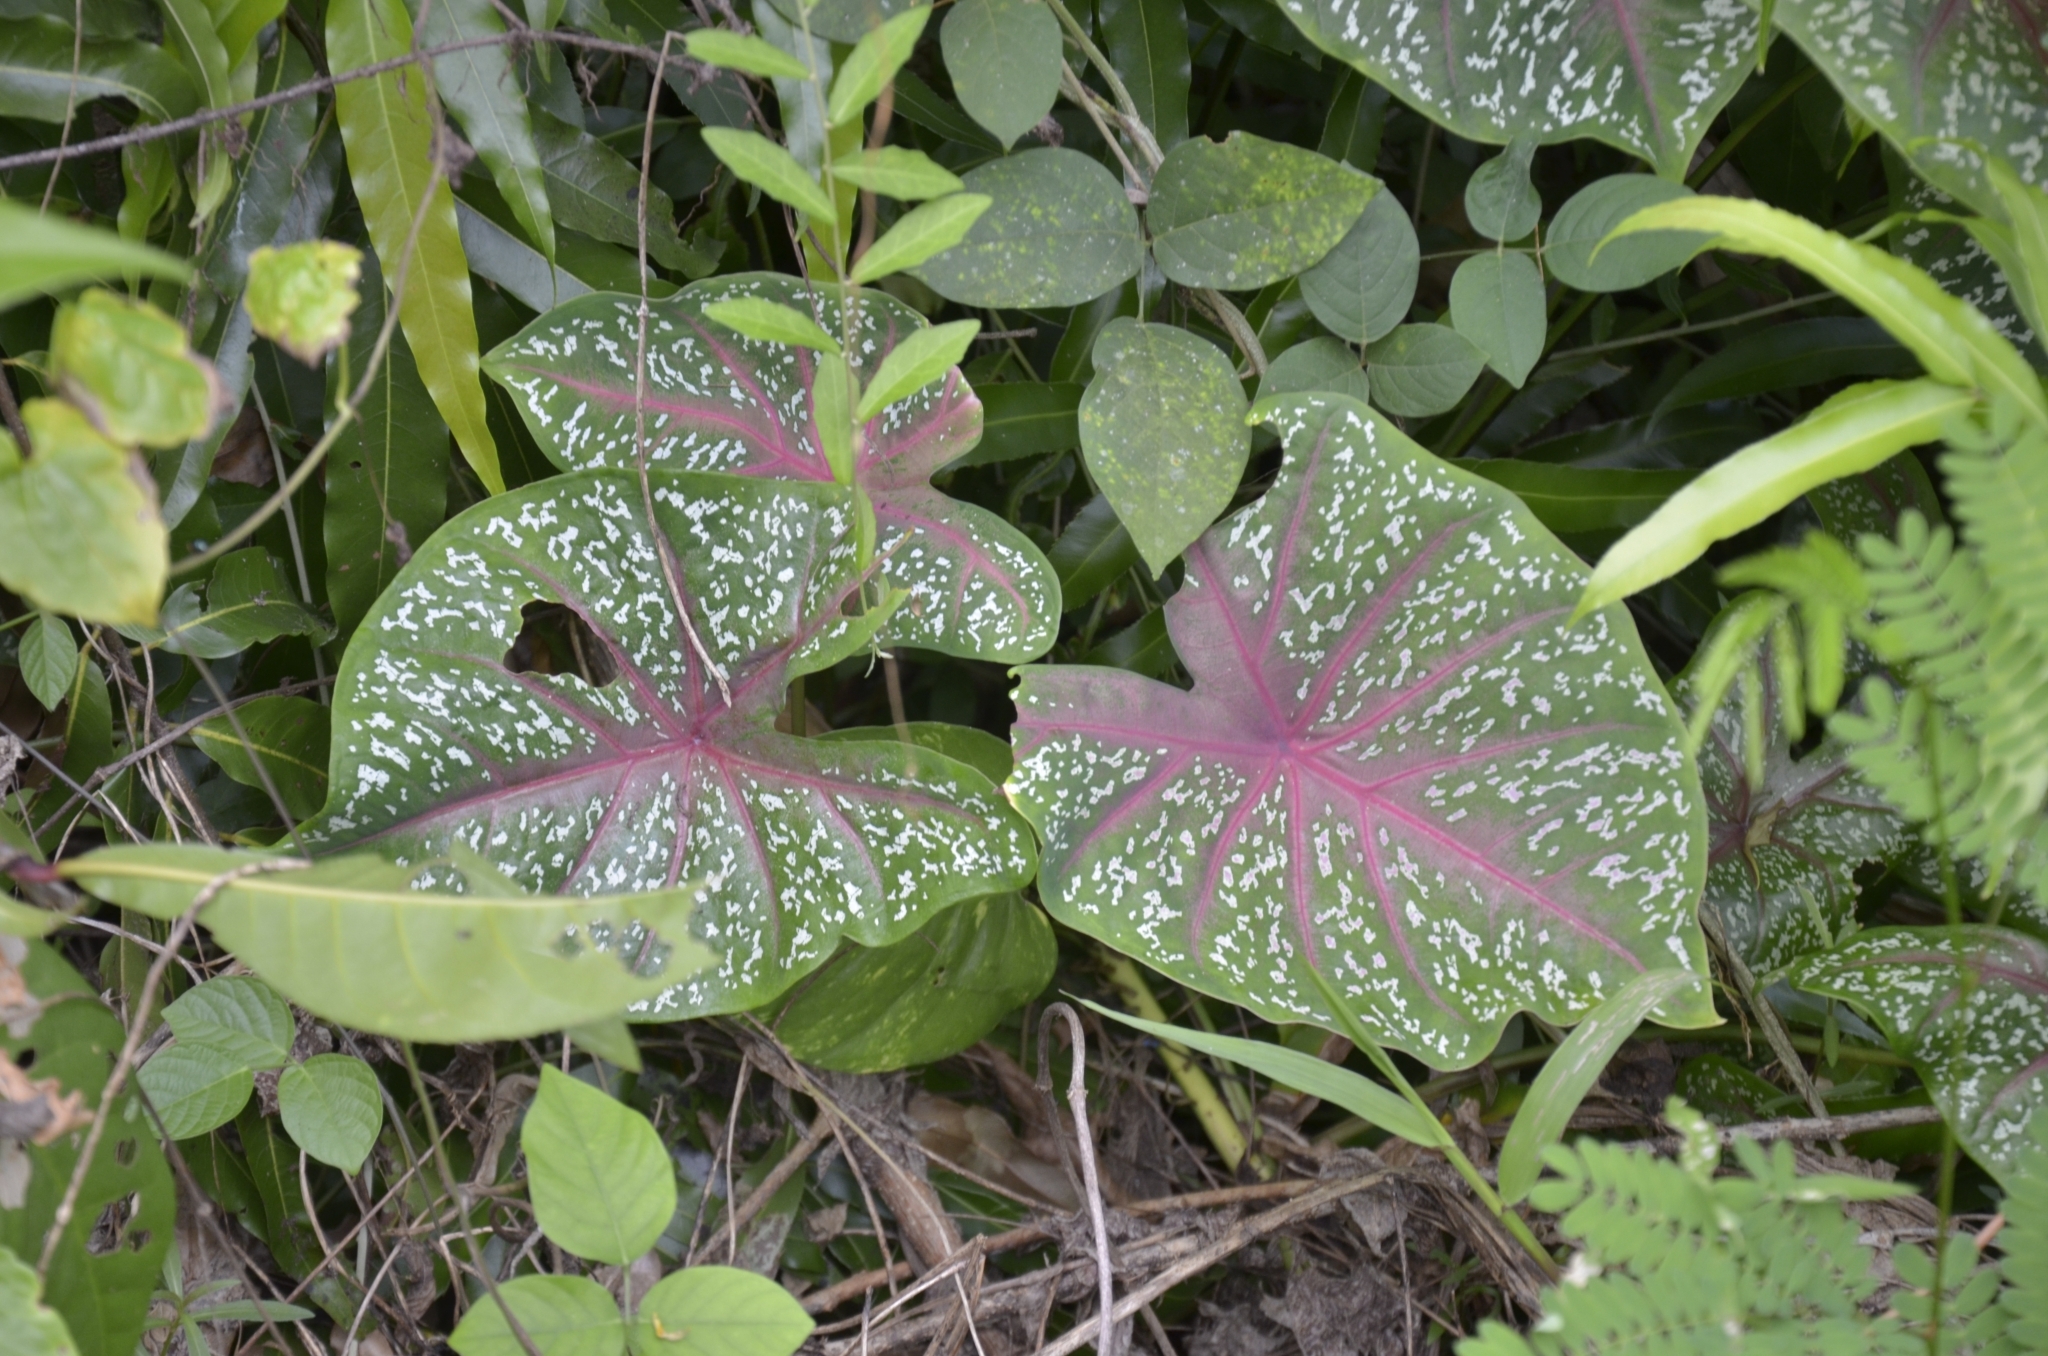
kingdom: Plantae
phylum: Tracheophyta
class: Liliopsida
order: Alismatales
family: Araceae
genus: Caladium
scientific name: Caladium bicolor
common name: Artist's pallet
